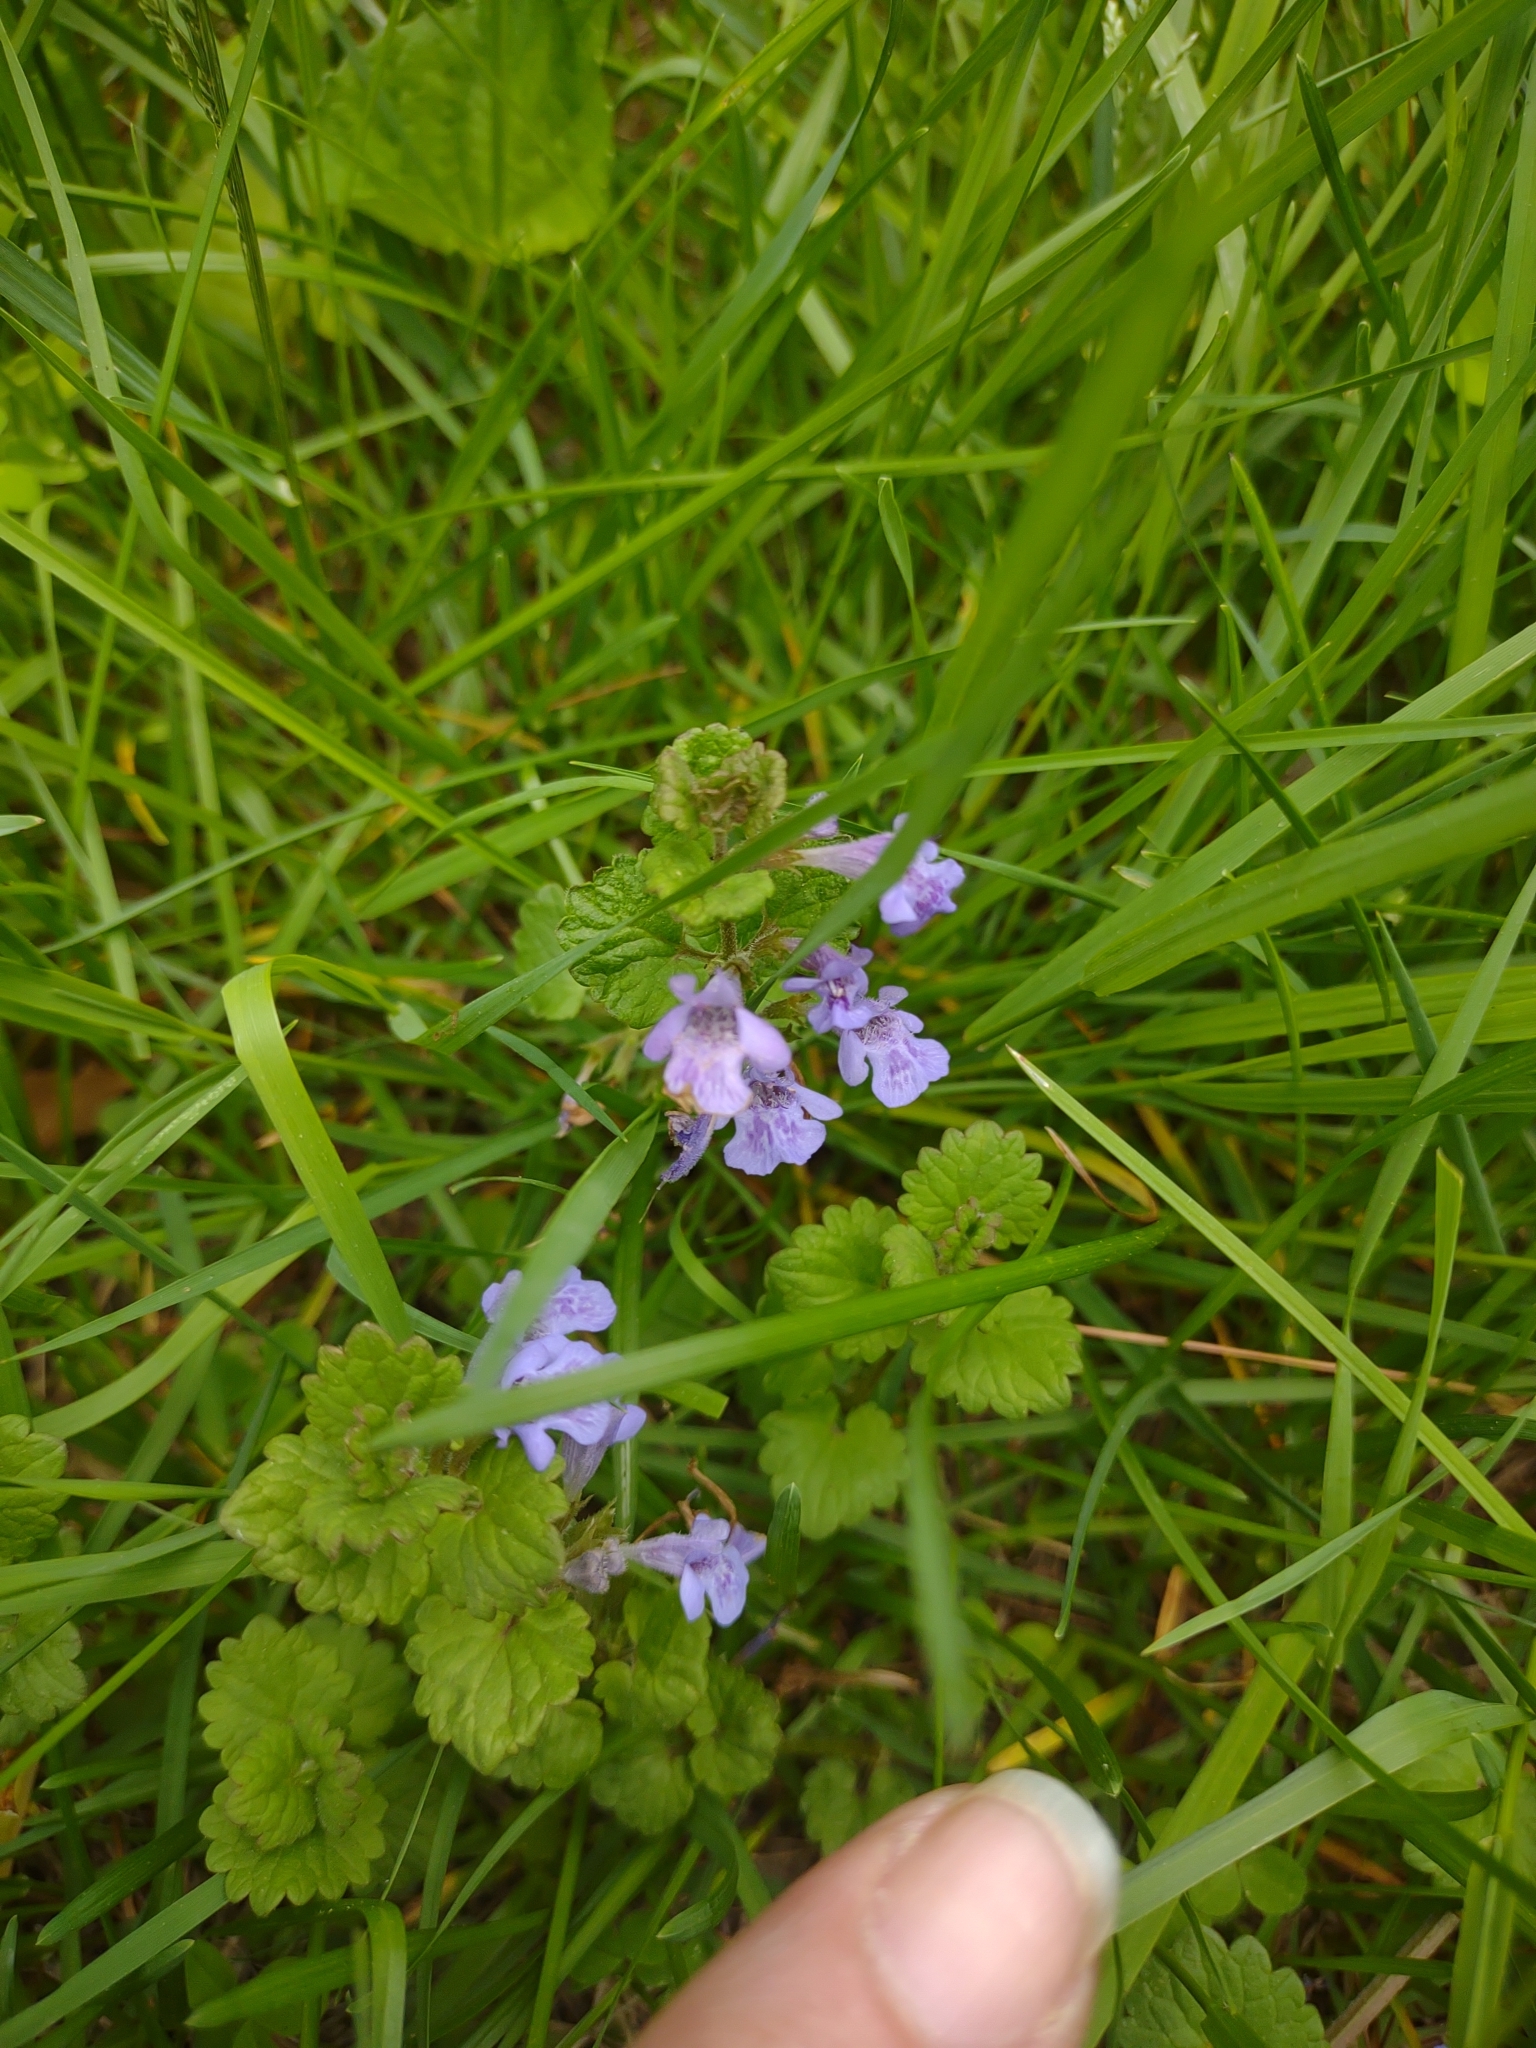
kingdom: Plantae
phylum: Tracheophyta
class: Magnoliopsida
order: Lamiales
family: Lamiaceae
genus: Glechoma
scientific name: Glechoma hederacea
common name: Ground ivy
